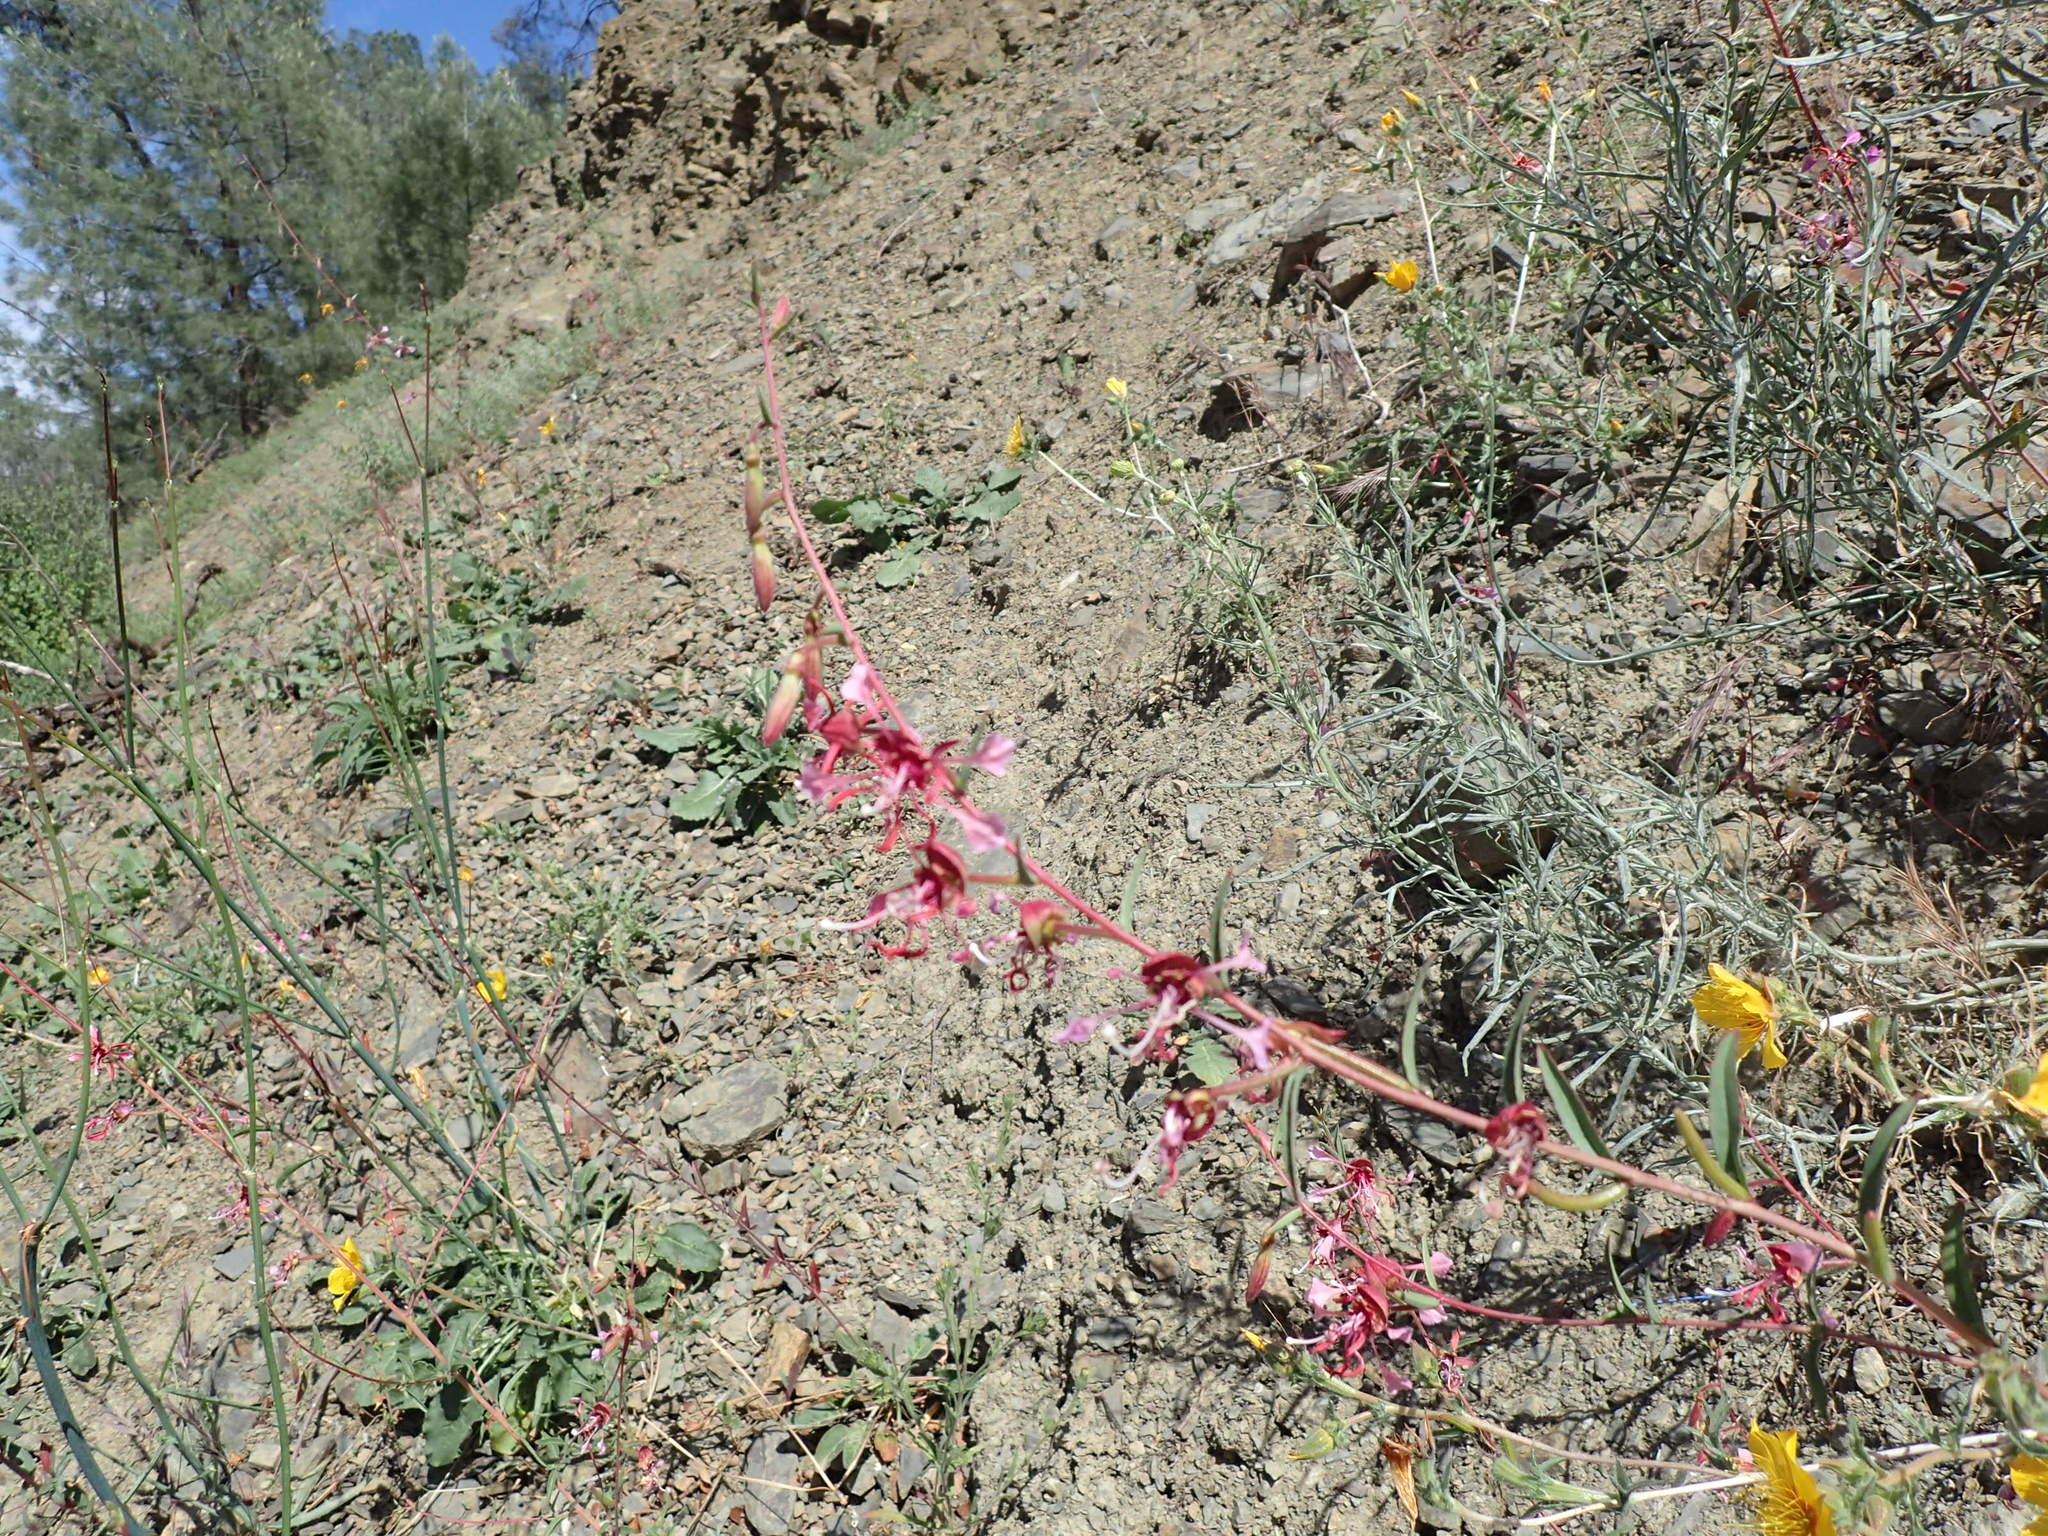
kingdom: Plantae
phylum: Tracheophyta
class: Magnoliopsida
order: Myrtales
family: Onagraceae
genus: Clarkia
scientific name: Clarkia unguiculata
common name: Clarkia
